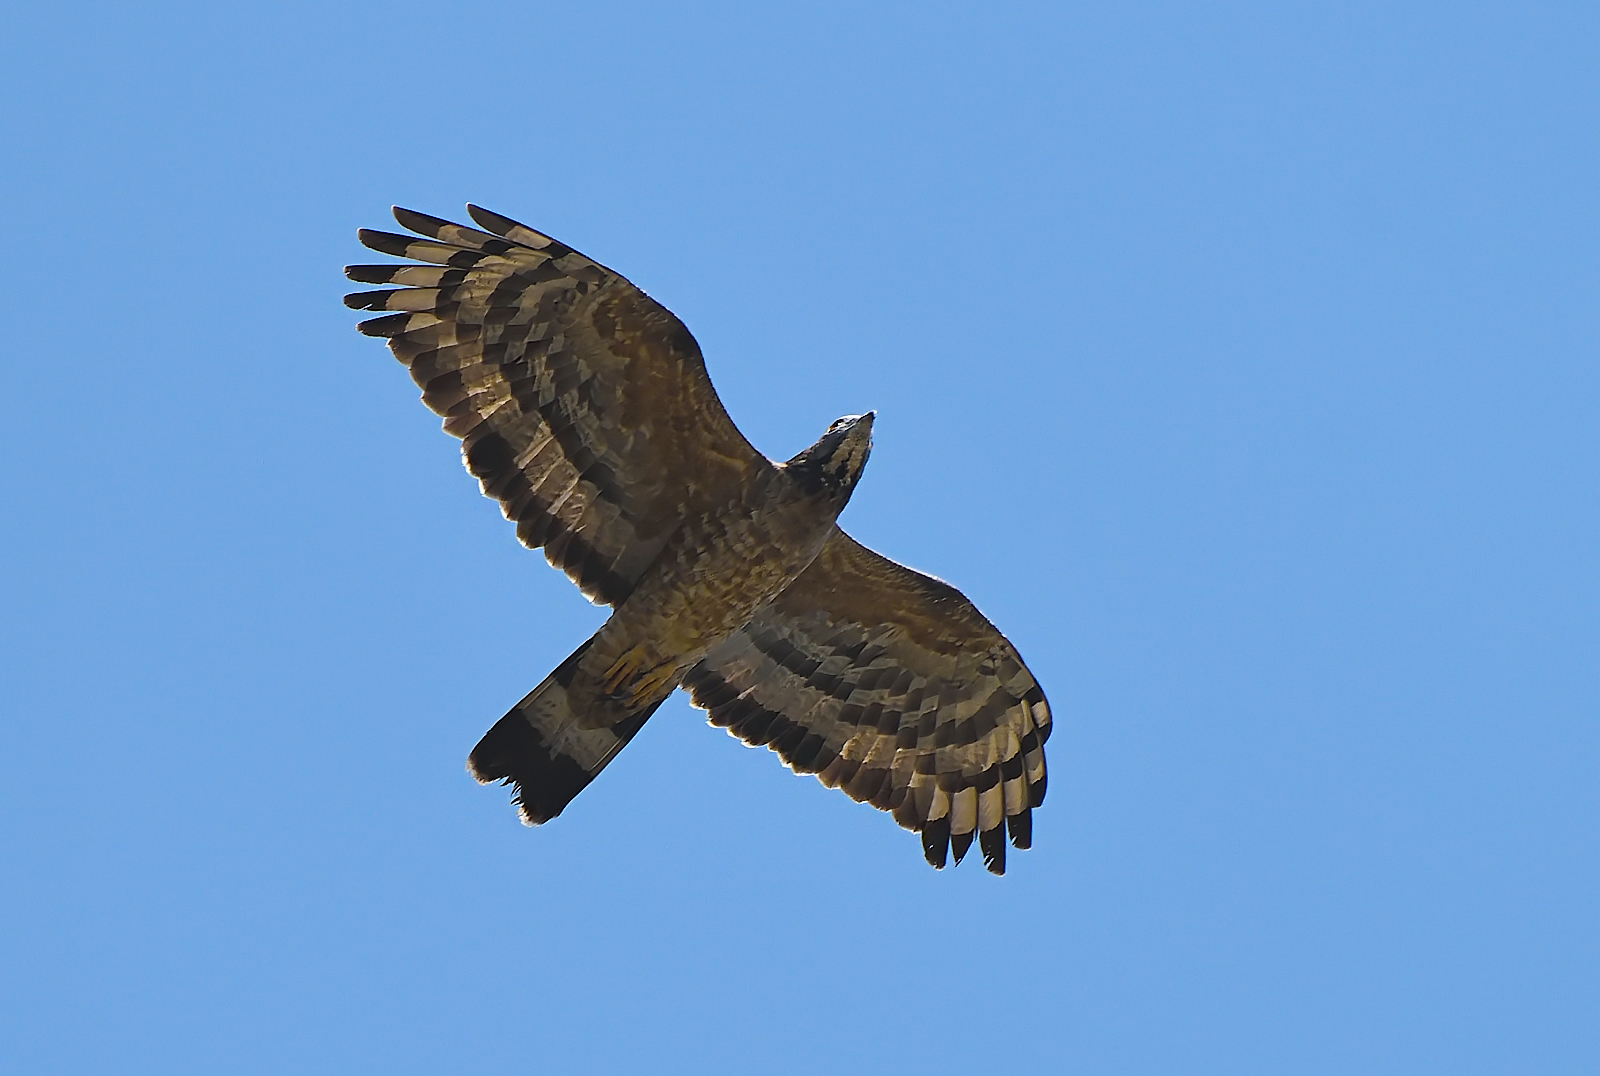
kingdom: Animalia
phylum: Chordata
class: Aves
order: Accipitriformes
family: Accipitridae
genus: Pernis
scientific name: Pernis ptilorhynchus
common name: Crested honey buzzard
